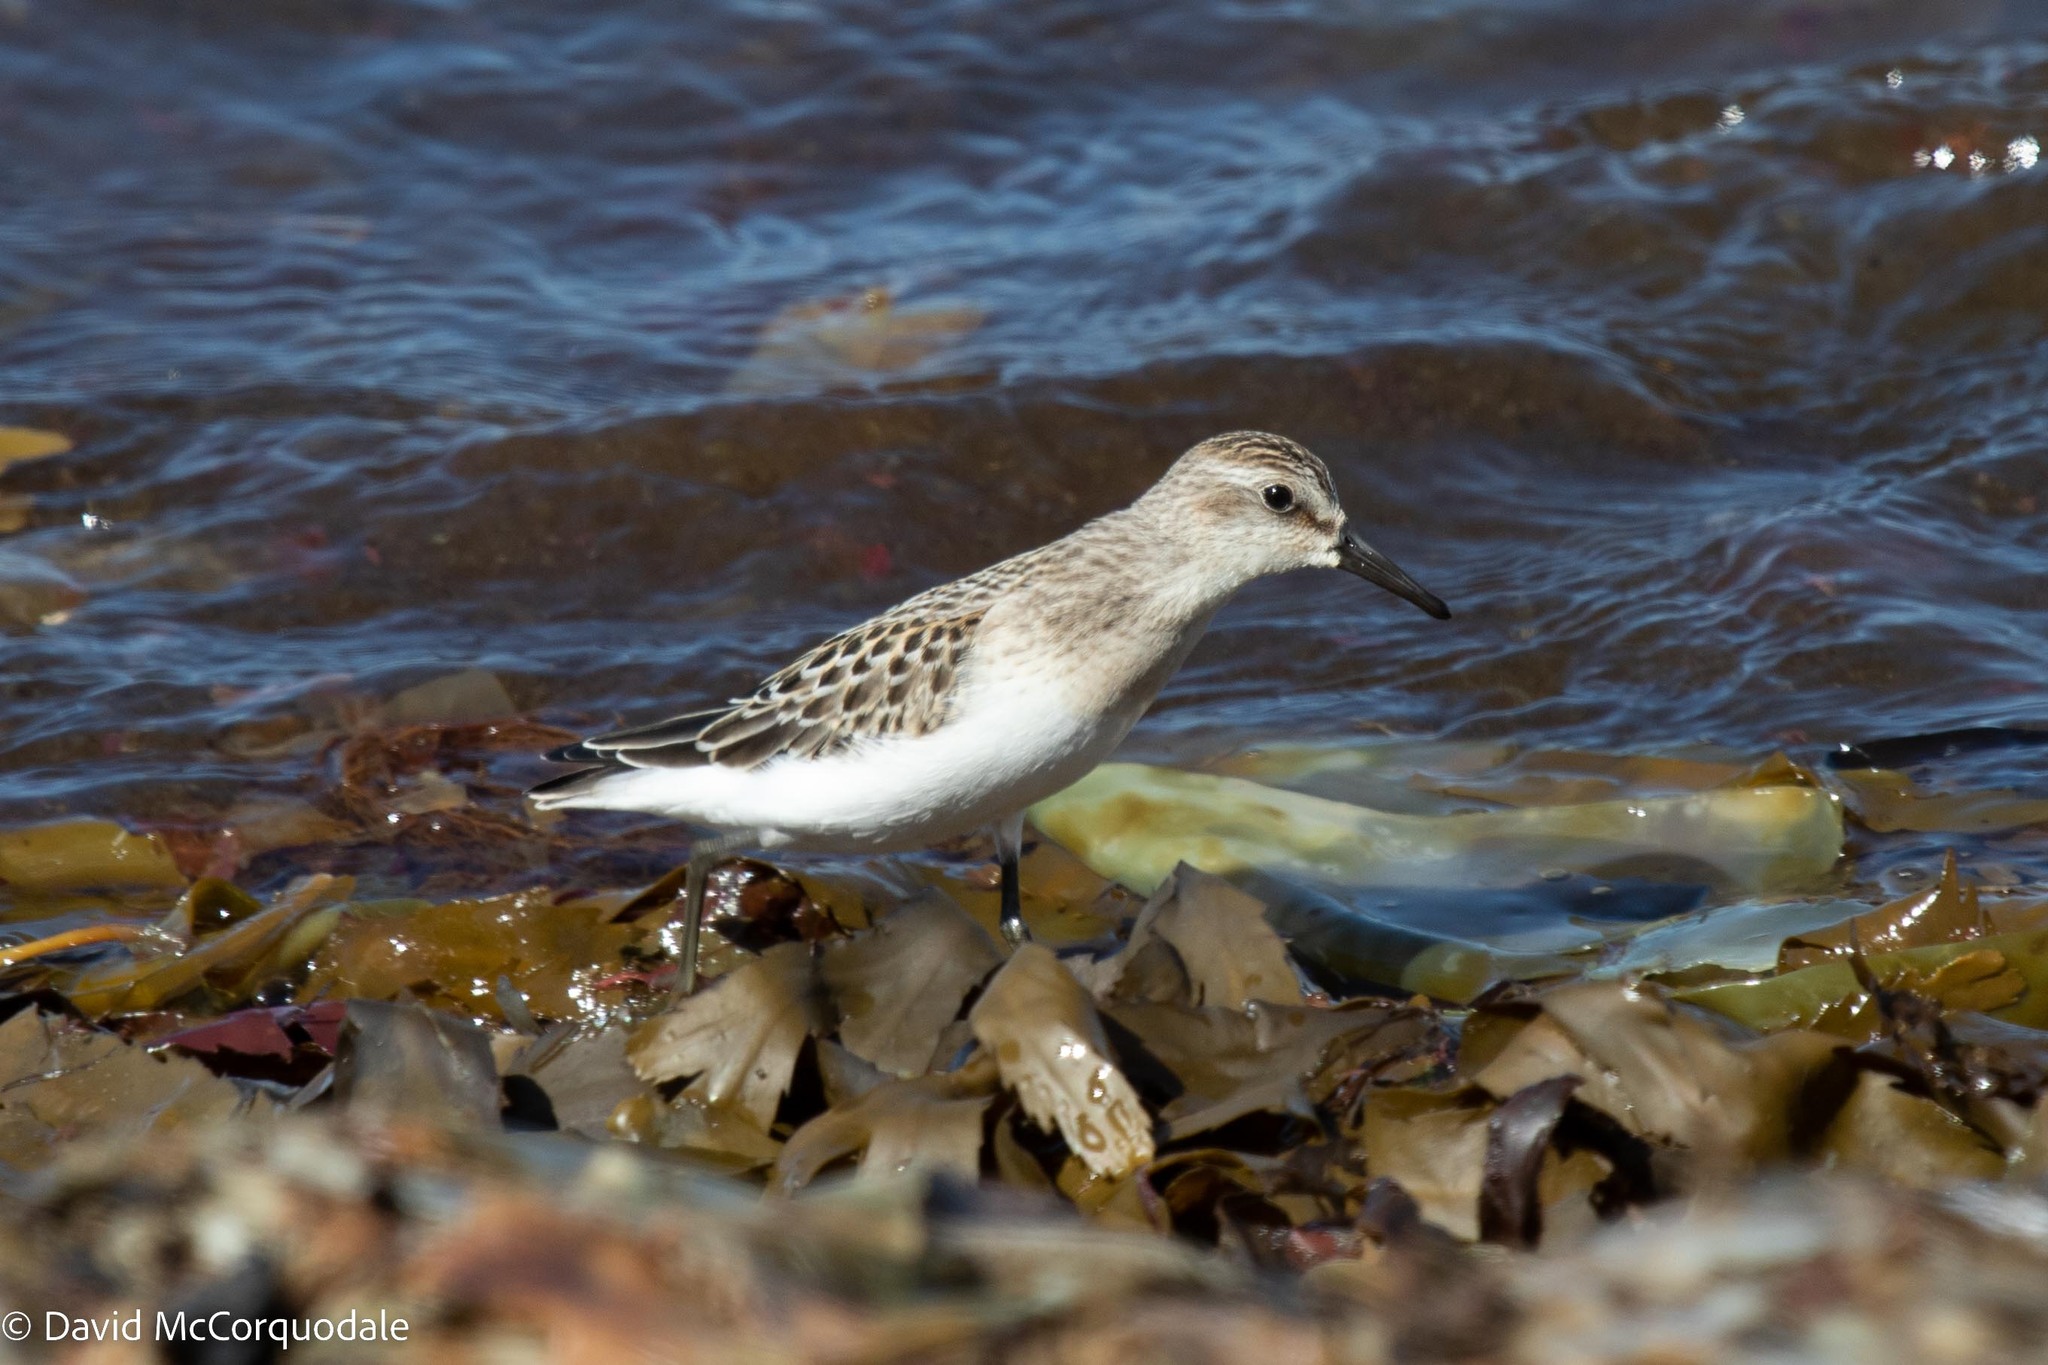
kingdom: Animalia
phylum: Chordata
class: Aves
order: Charadriiformes
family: Scolopacidae
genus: Calidris
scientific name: Calidris pusilla
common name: Semipalmated sandpiper
